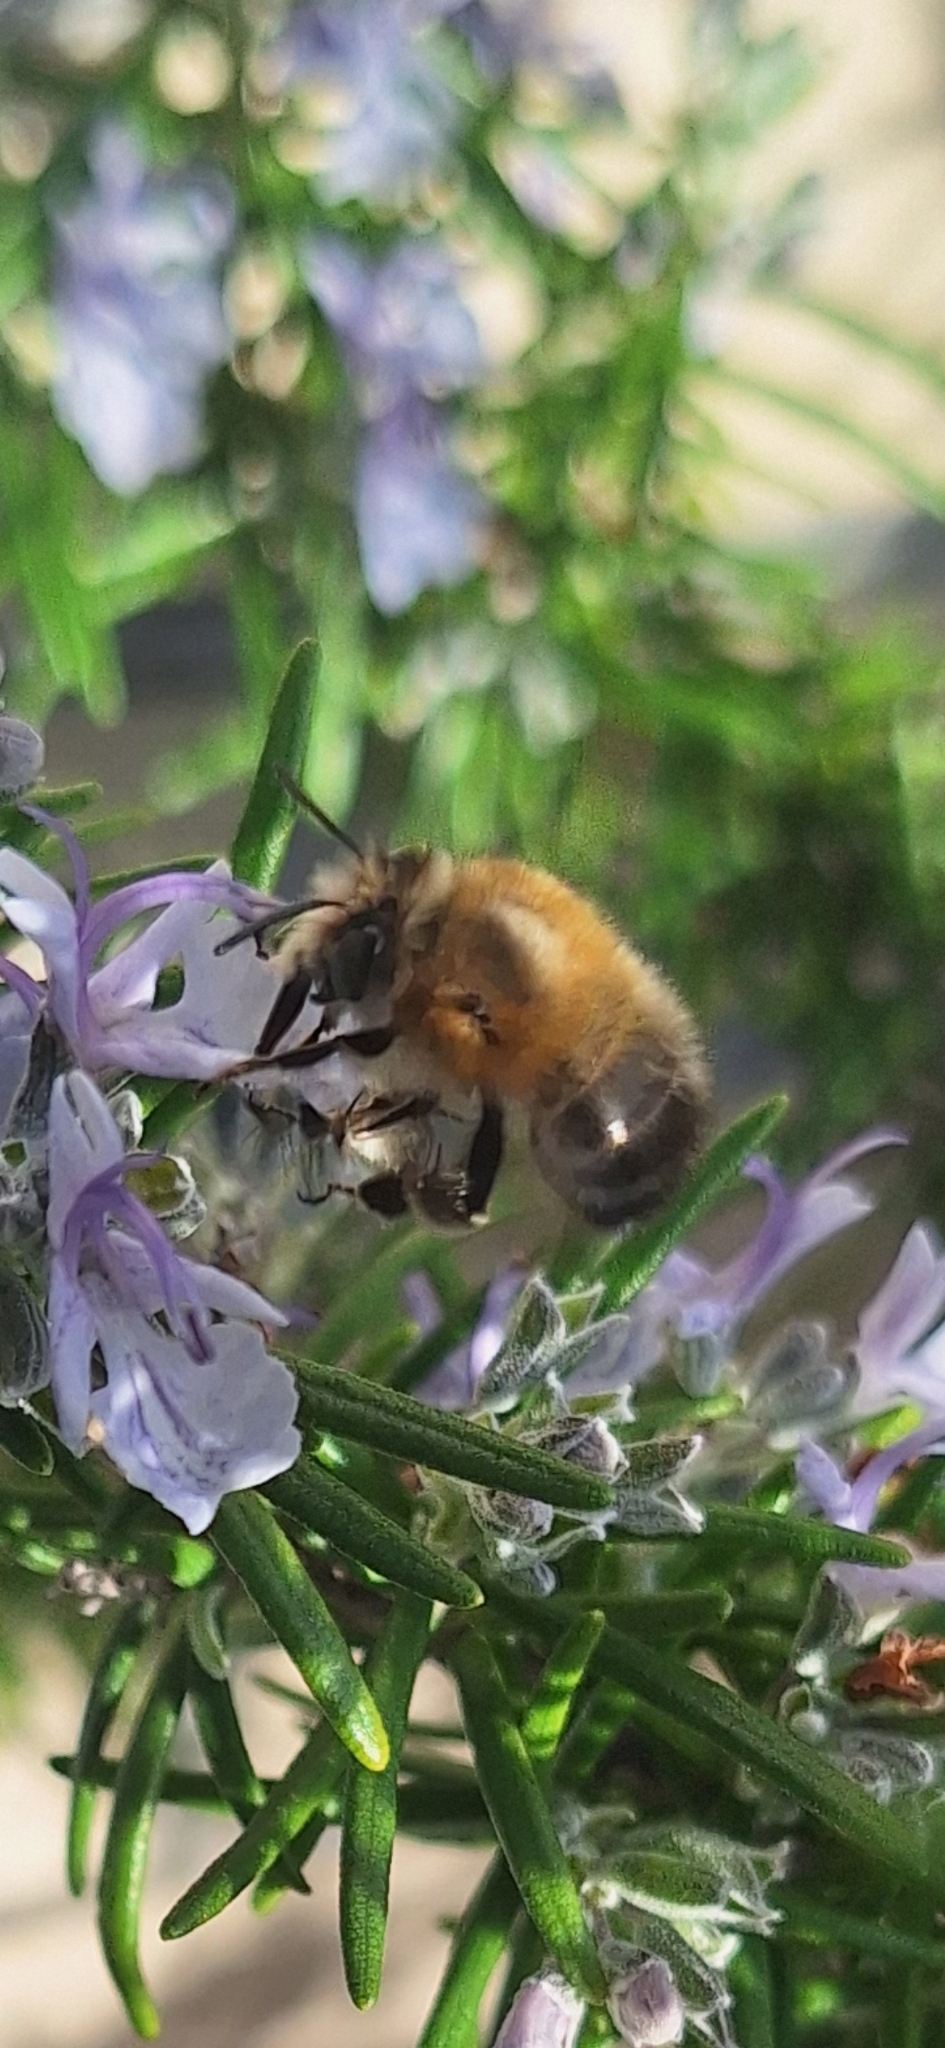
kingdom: Animalia
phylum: Arthropoda
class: Insecta
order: Hymenoptera
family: Apidae
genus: Anthophora
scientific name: Anthophora plumipes
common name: Hairy-footed flower bee
